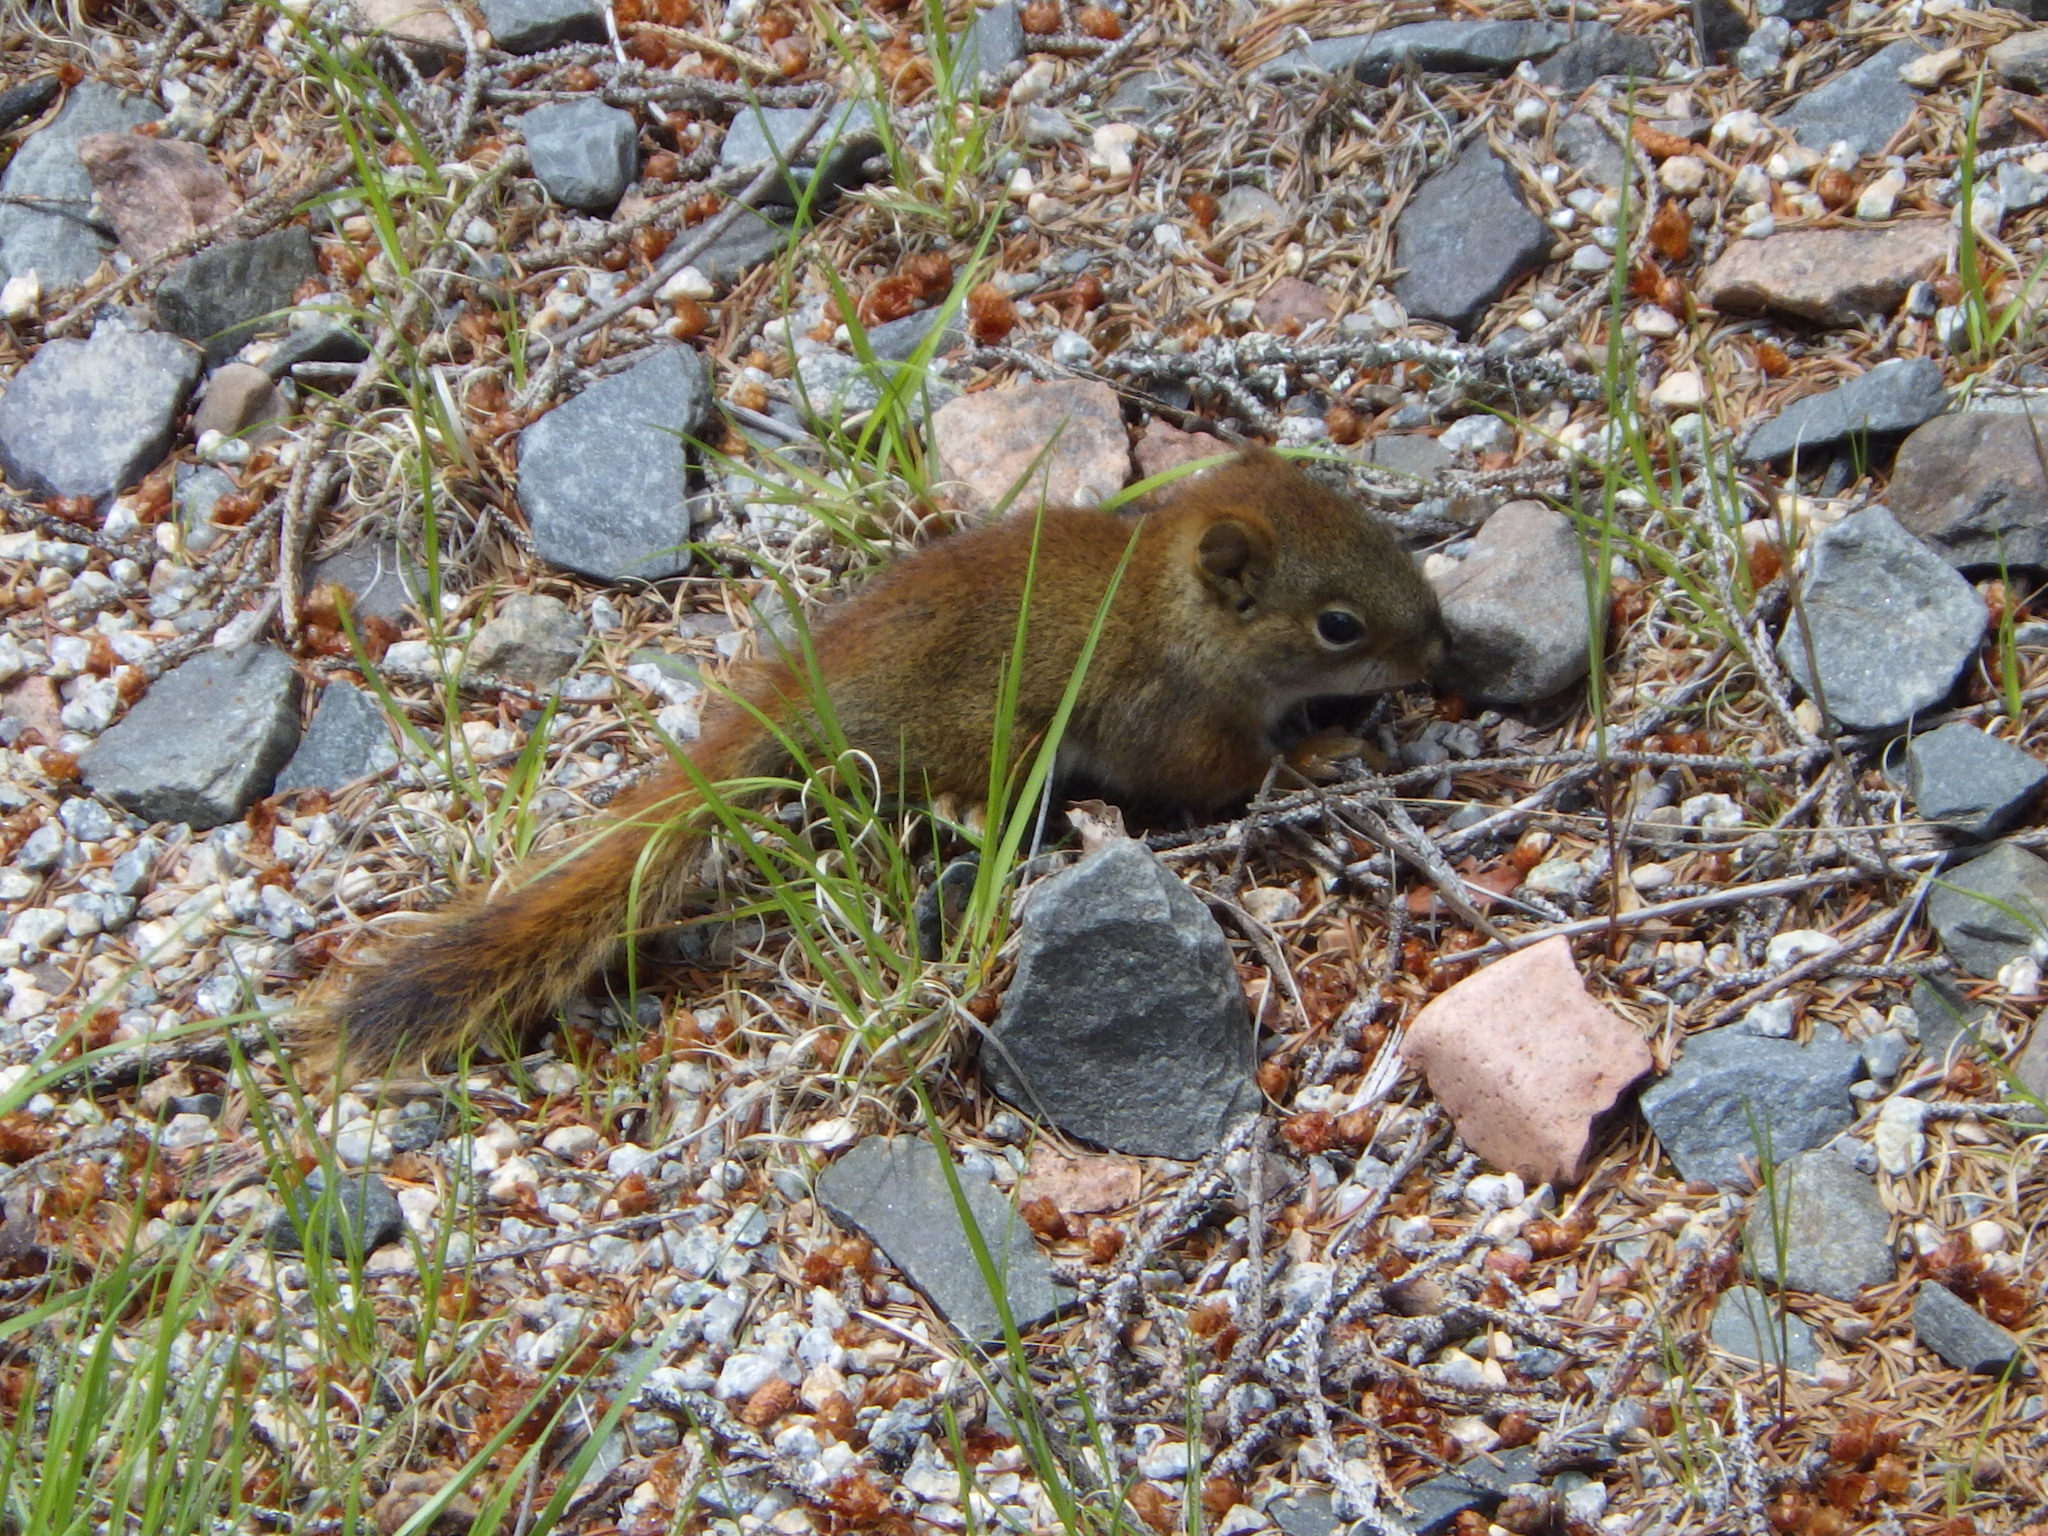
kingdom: Animalia
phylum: Chordata
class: Mammalia
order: Rodentia
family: Sciuridae
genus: Tamiasciurus
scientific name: Tamiasciurus hudsonicus
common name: Red squirrel
